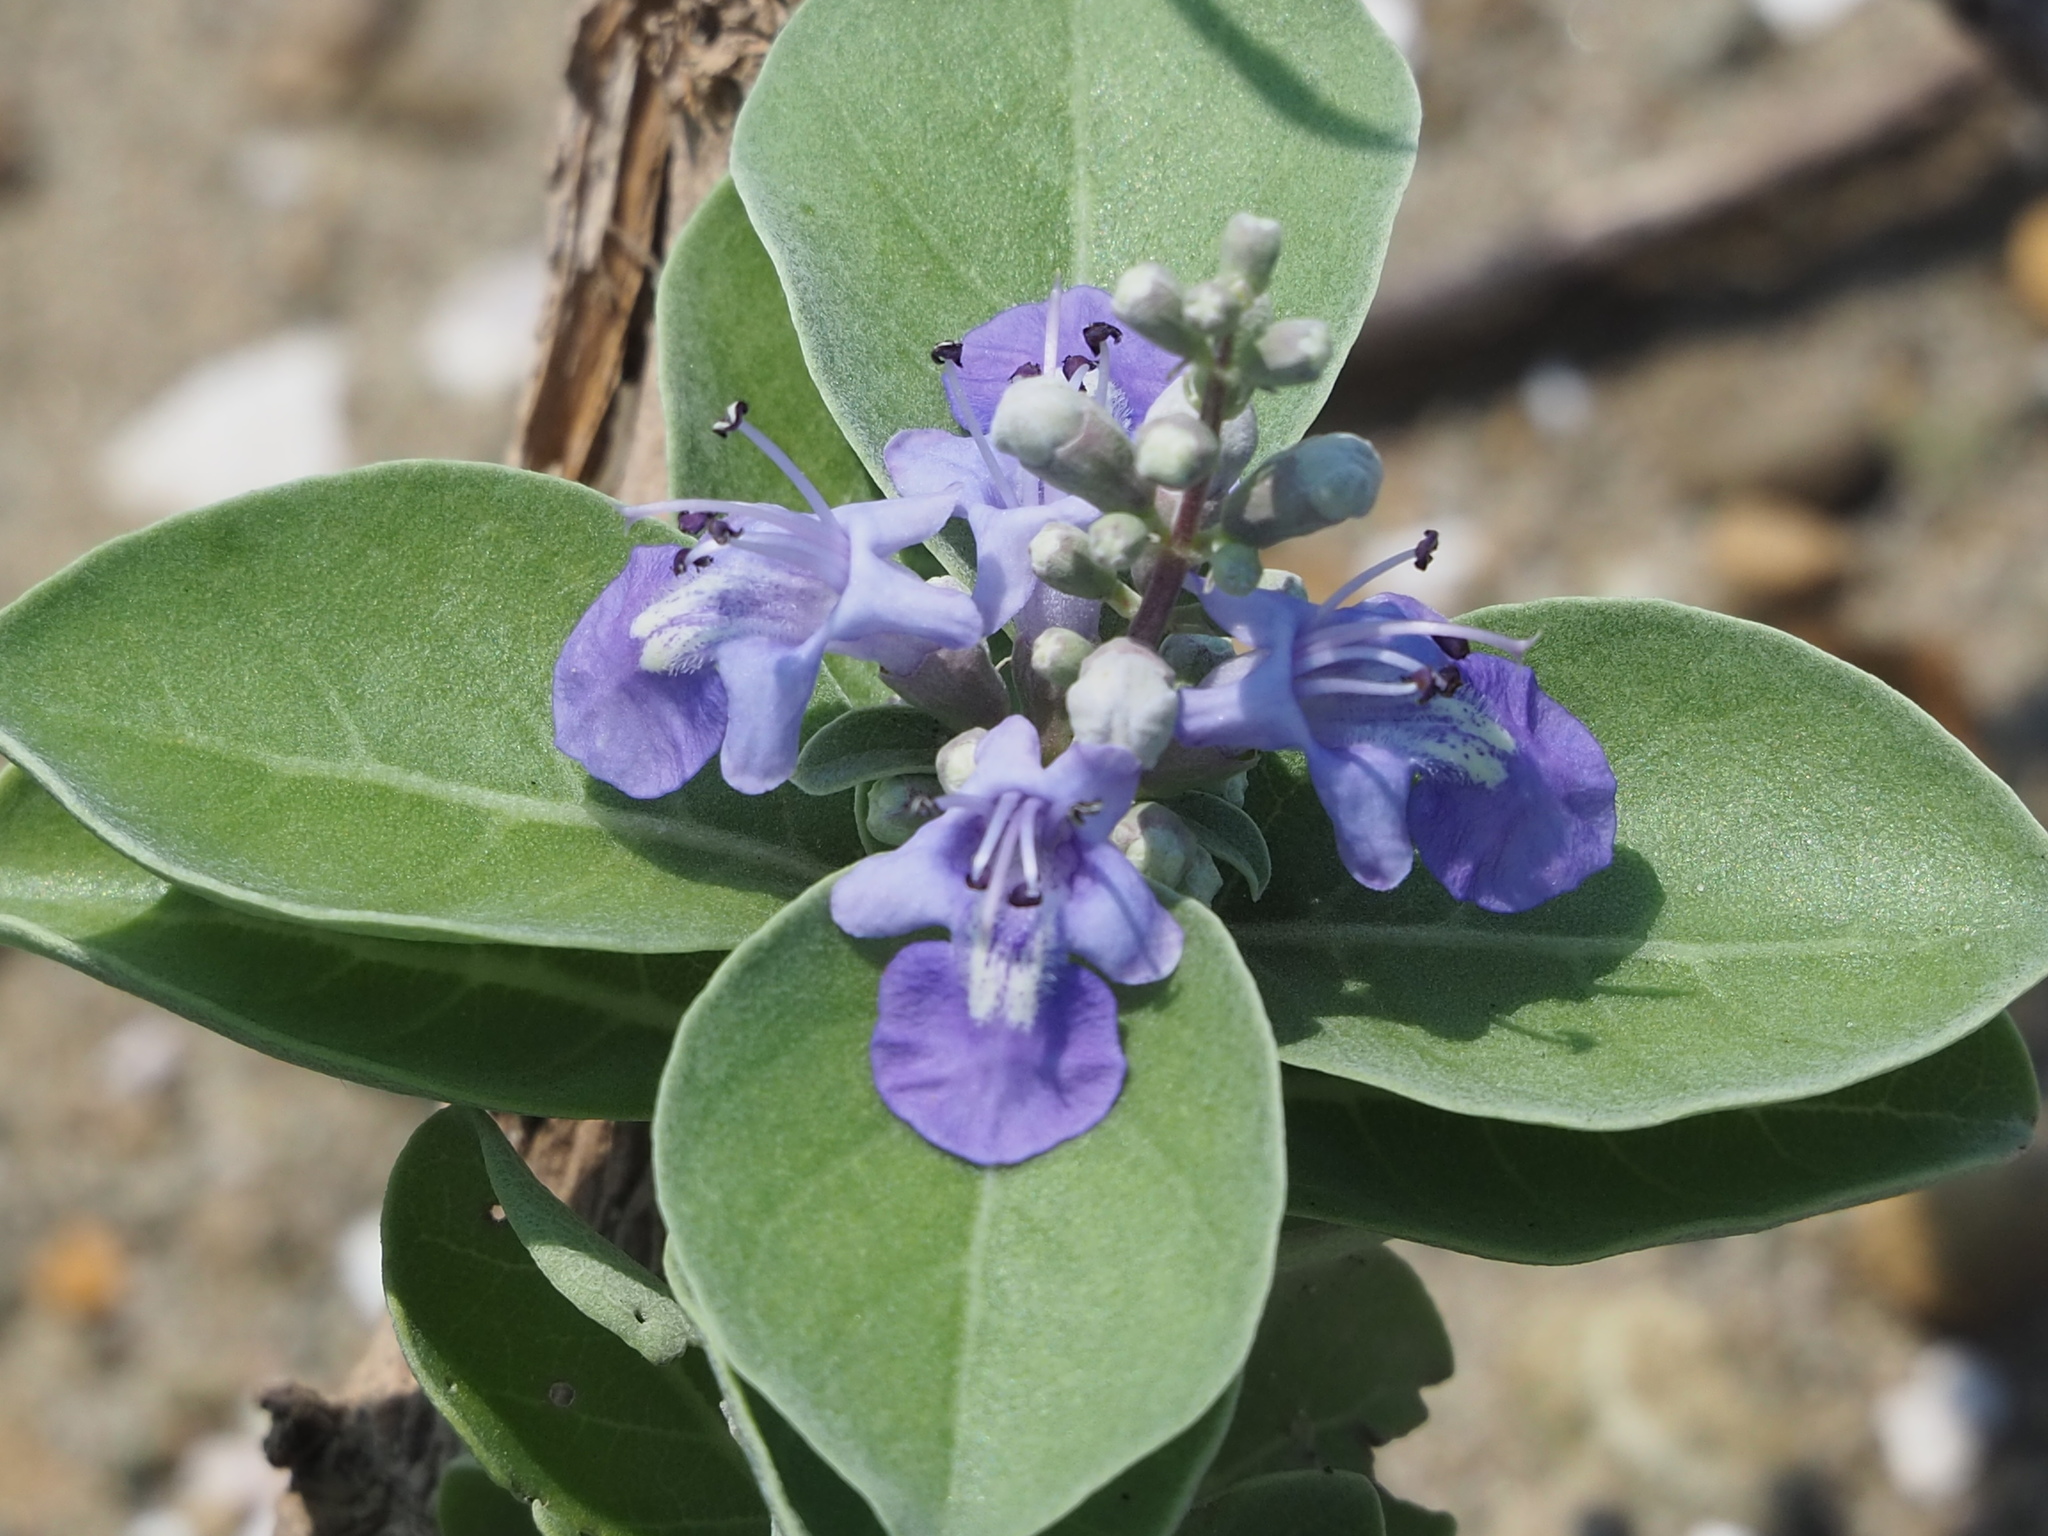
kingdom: Plantae
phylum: Tracheophyta
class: Magnoliopsida
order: Lamiales
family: Lamiaceae
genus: Vitex
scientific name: Vitex rotundifolia
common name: Beach vitex
